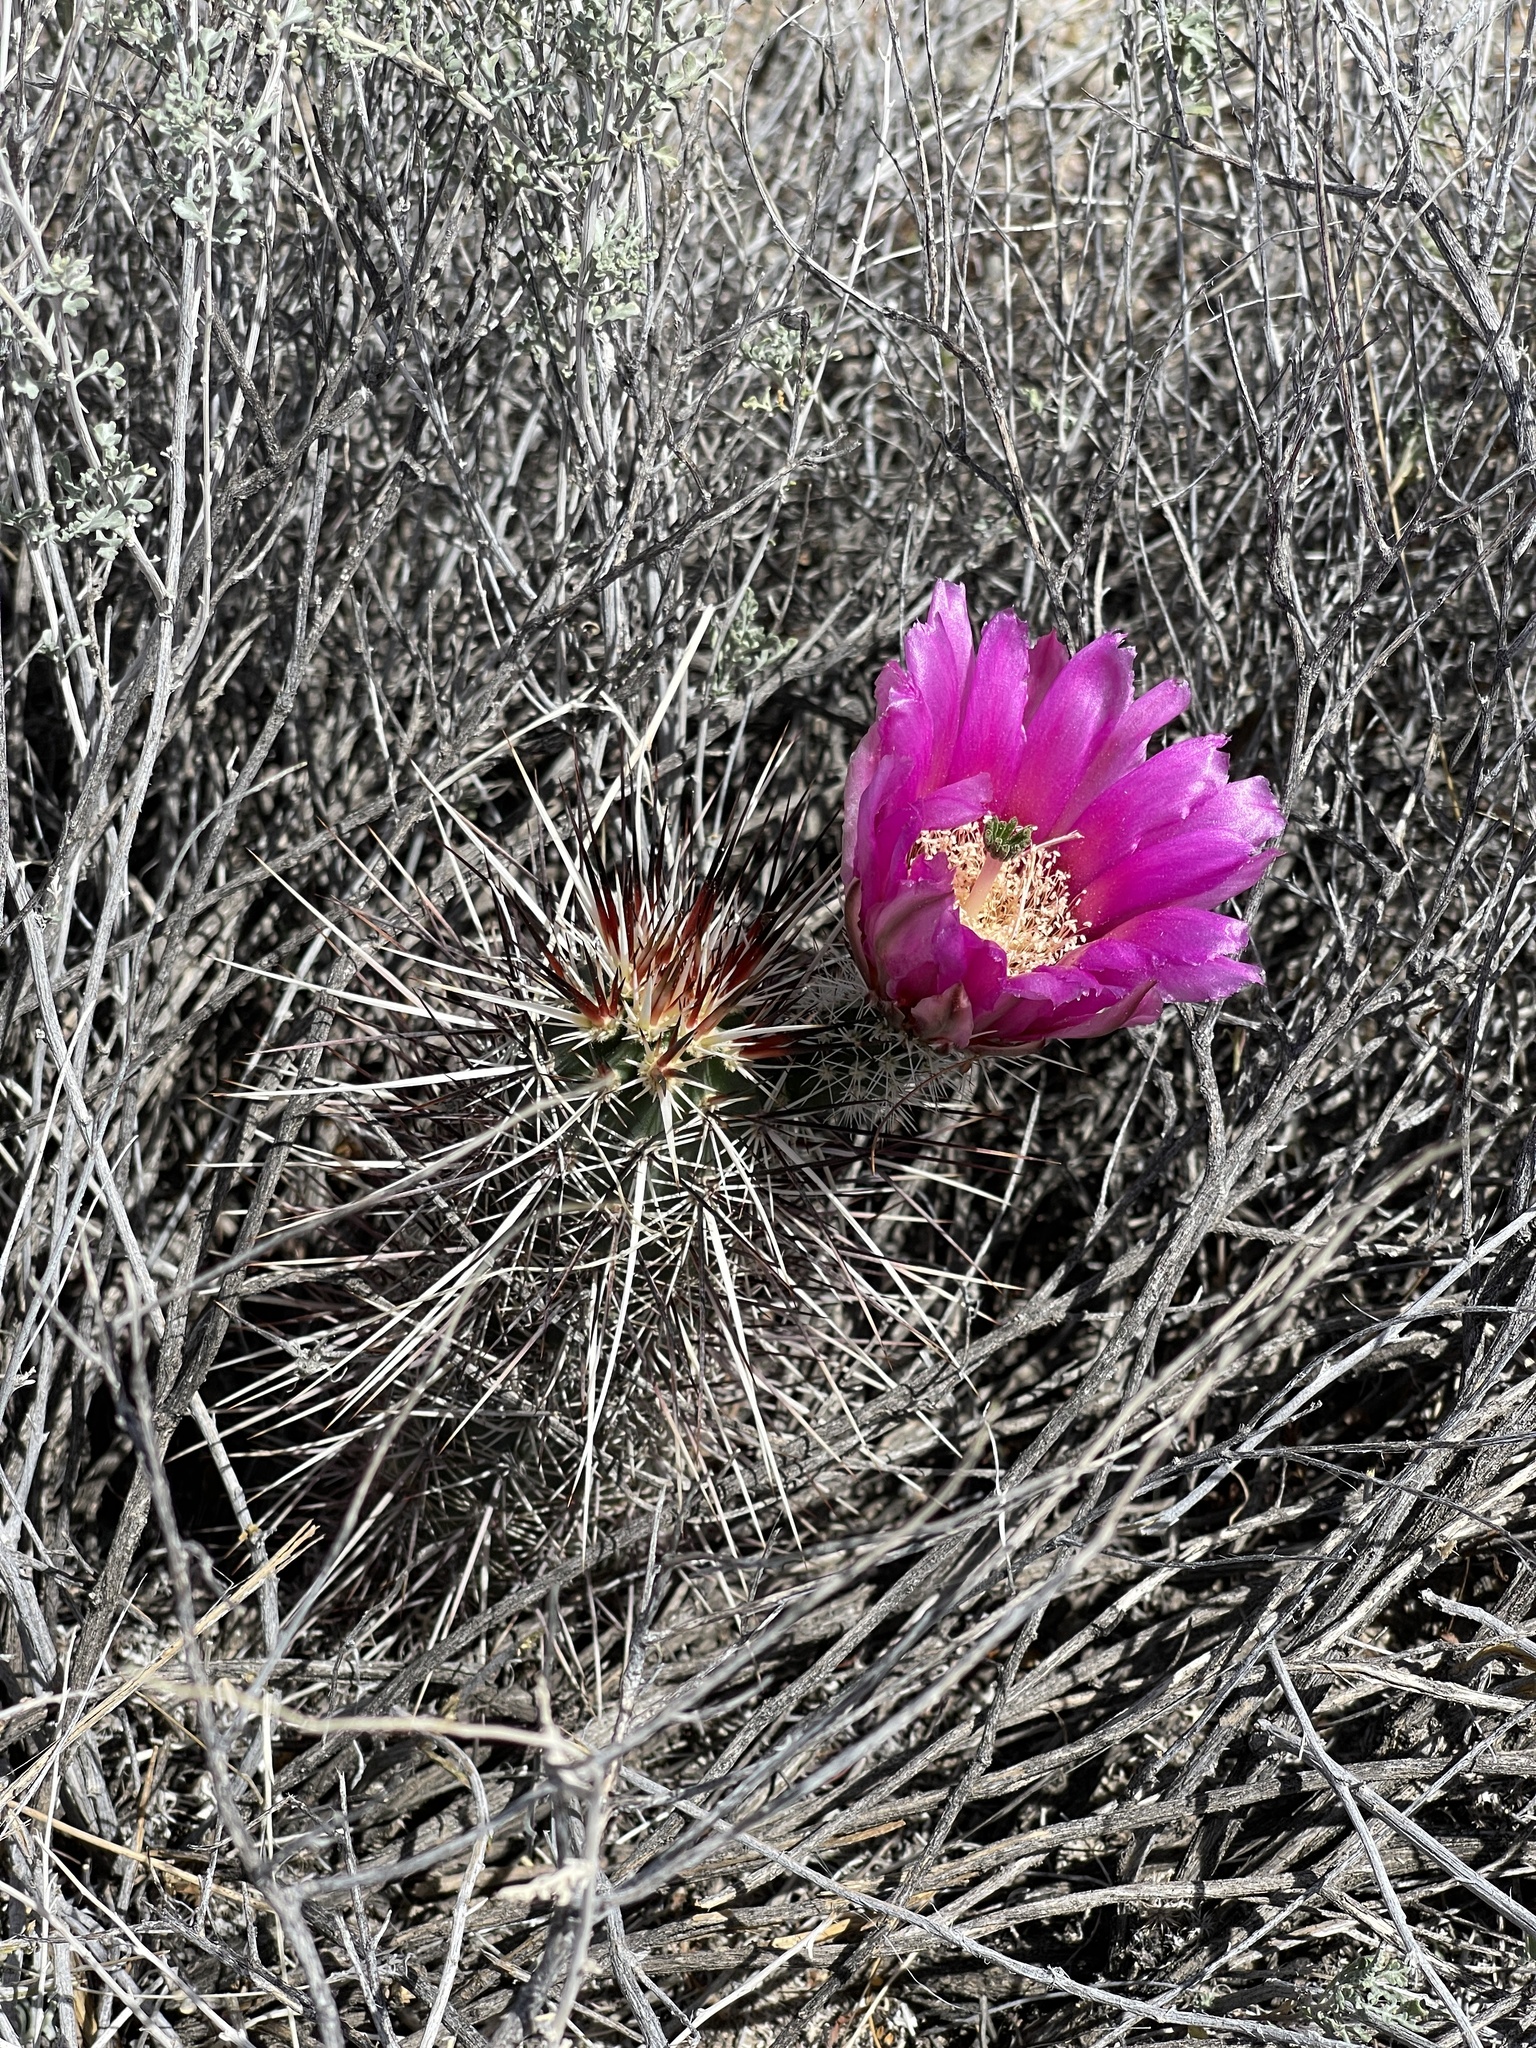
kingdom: Plantae
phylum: Tracheophyta
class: Magnoliopsida
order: Caryophyllales
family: Cactaceae
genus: Echinocereus
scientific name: Echinocereus engelmannii
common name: Engelmann's hedgehog cactus
